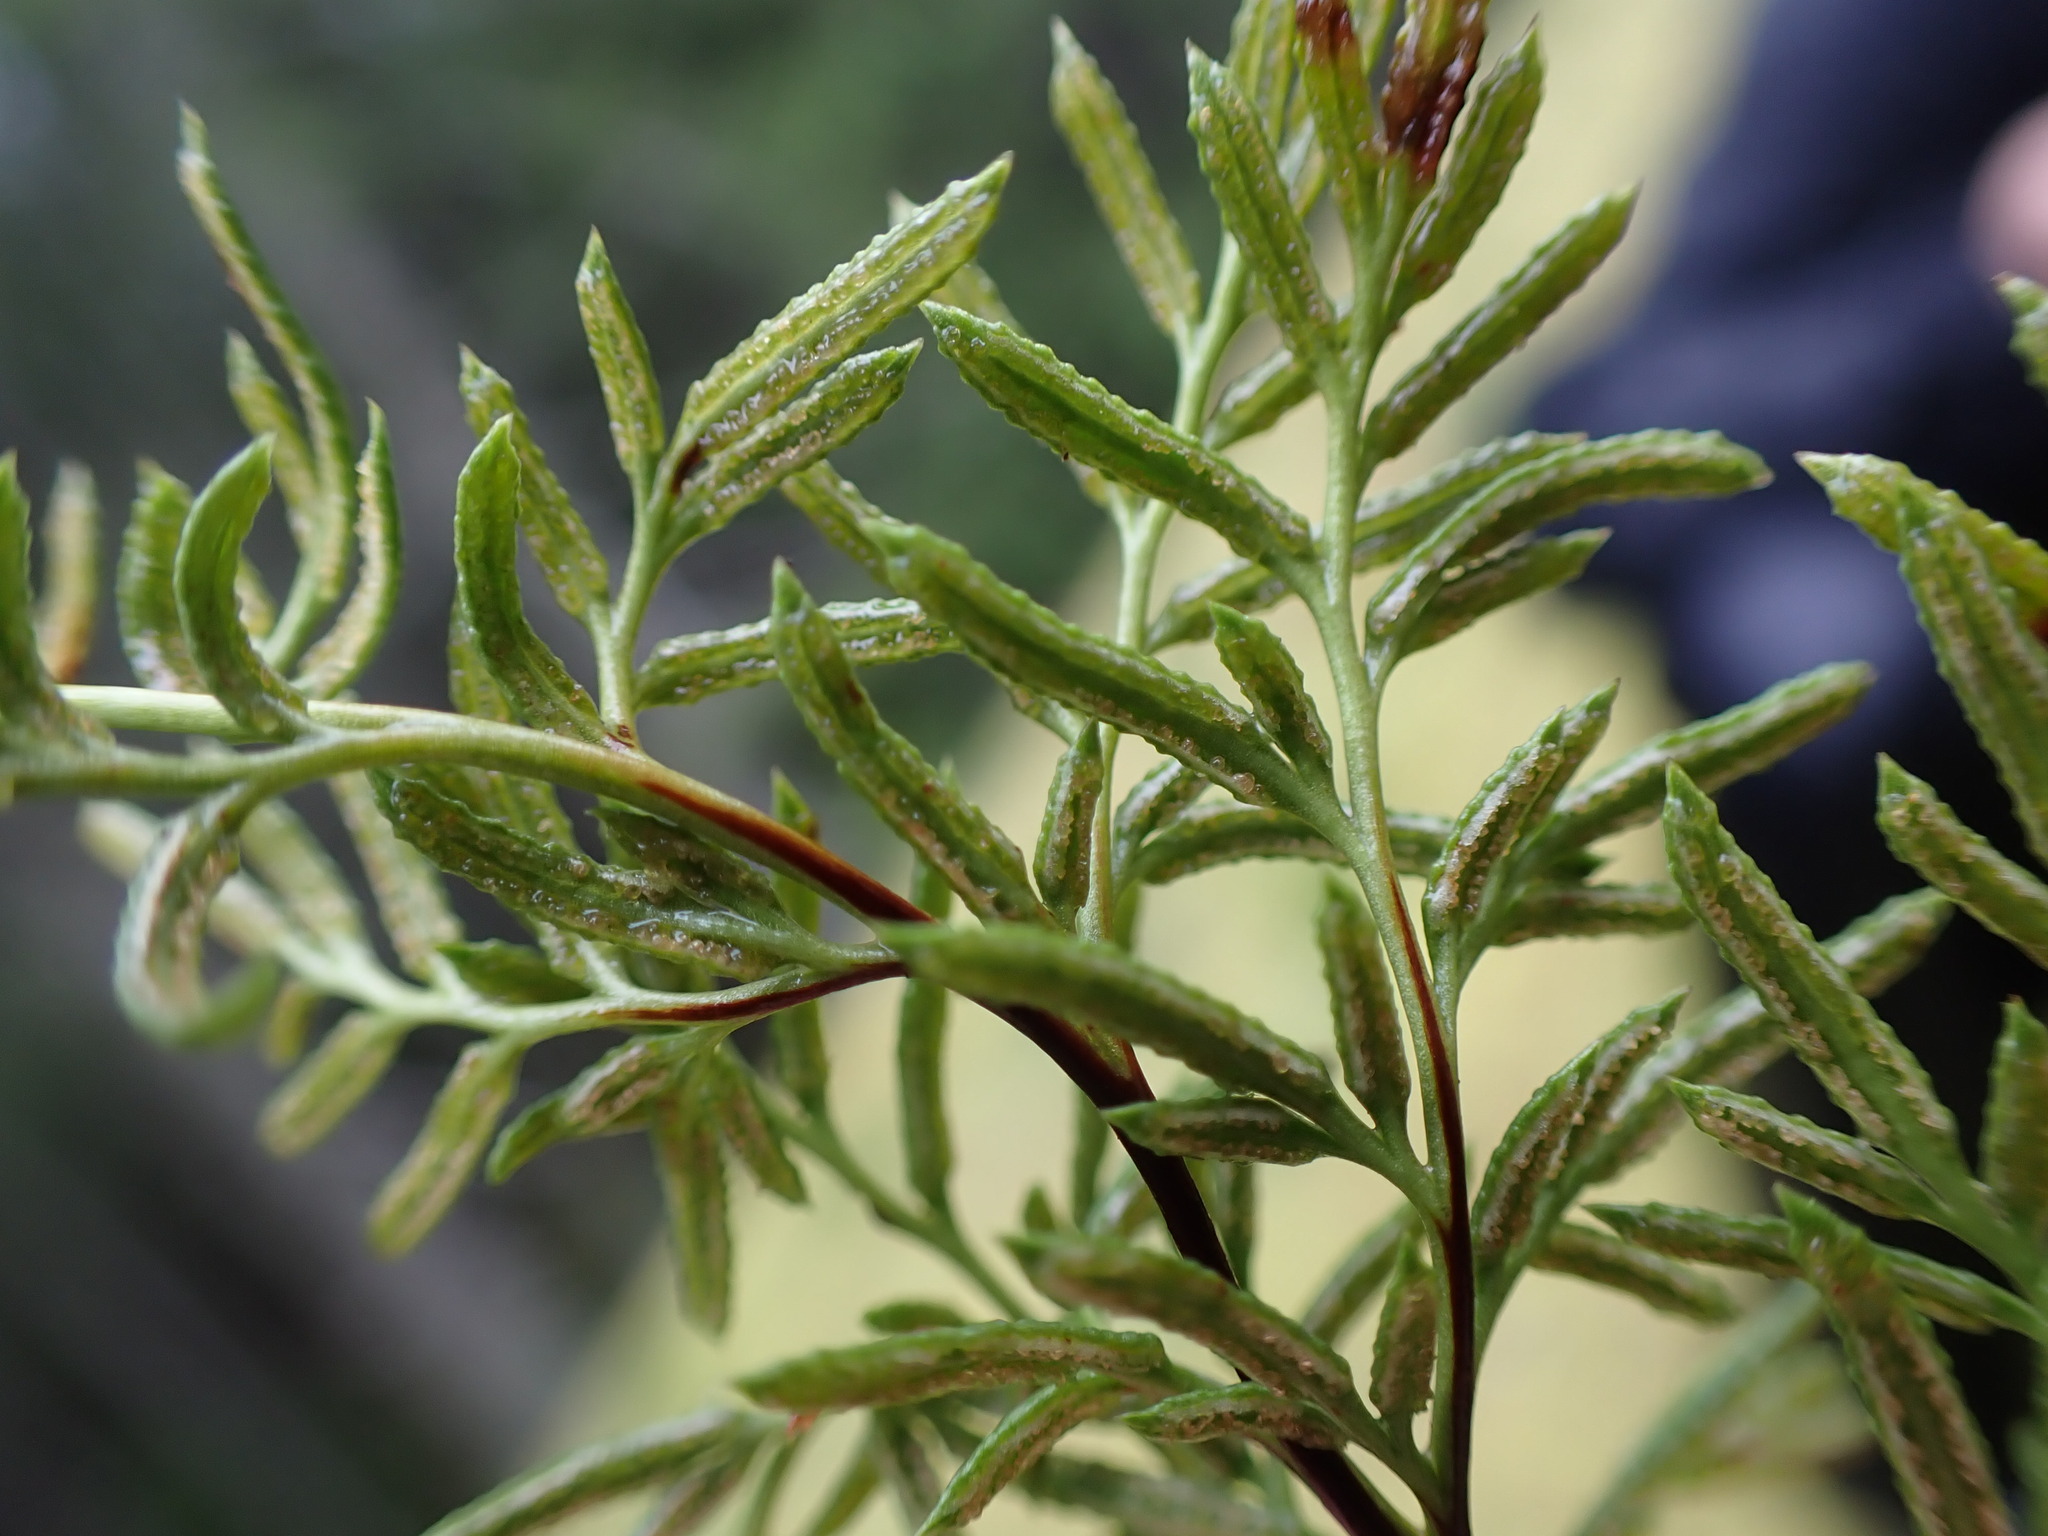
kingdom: Plantae
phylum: Tracheophyta
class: Polypodiopsida
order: Polypodiales
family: Pteridaceae
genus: Aspidotis
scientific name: Aspidotis densa
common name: Indian's dream
